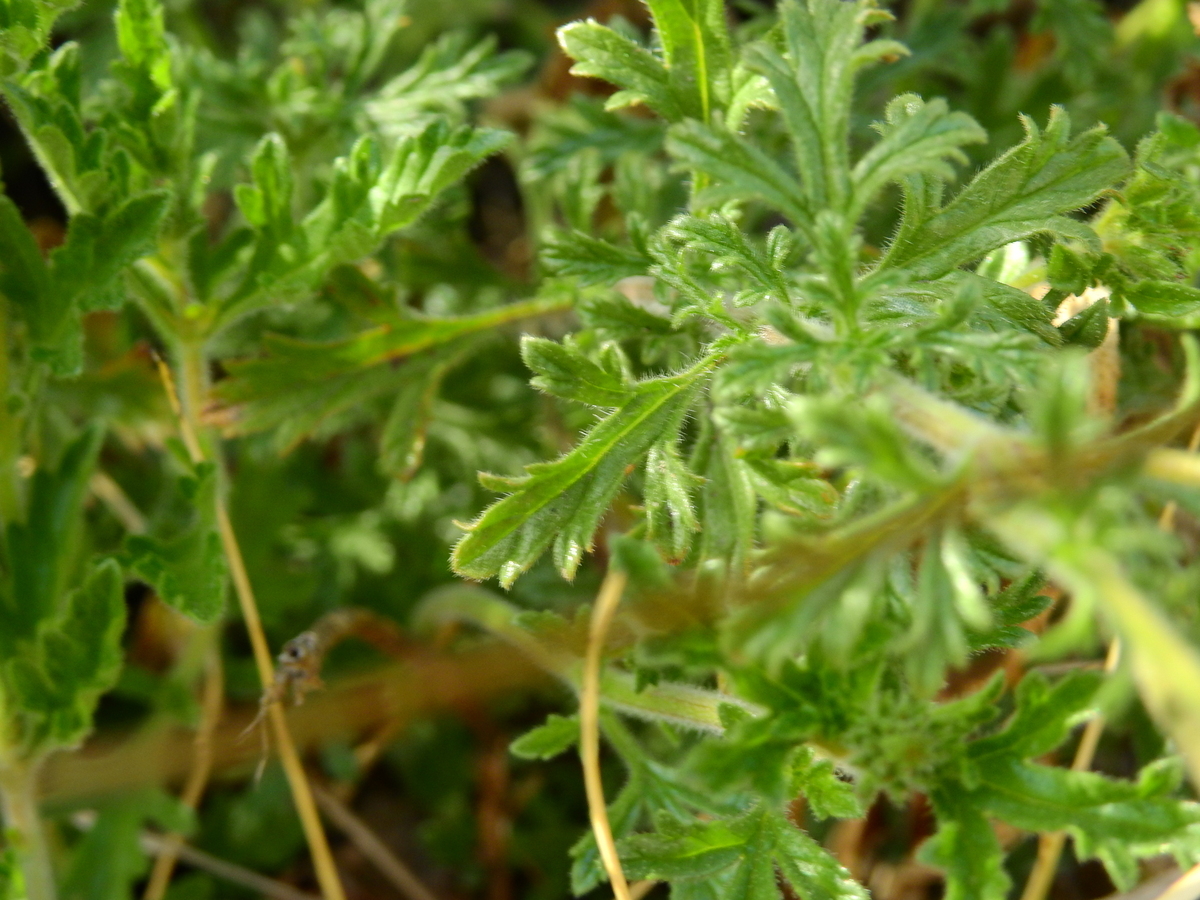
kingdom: Plantae
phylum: Tracheophyta
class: Magnoliopsida
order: Lamiales
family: Verbenaceae
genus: Verbena
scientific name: Verbena mendocina
